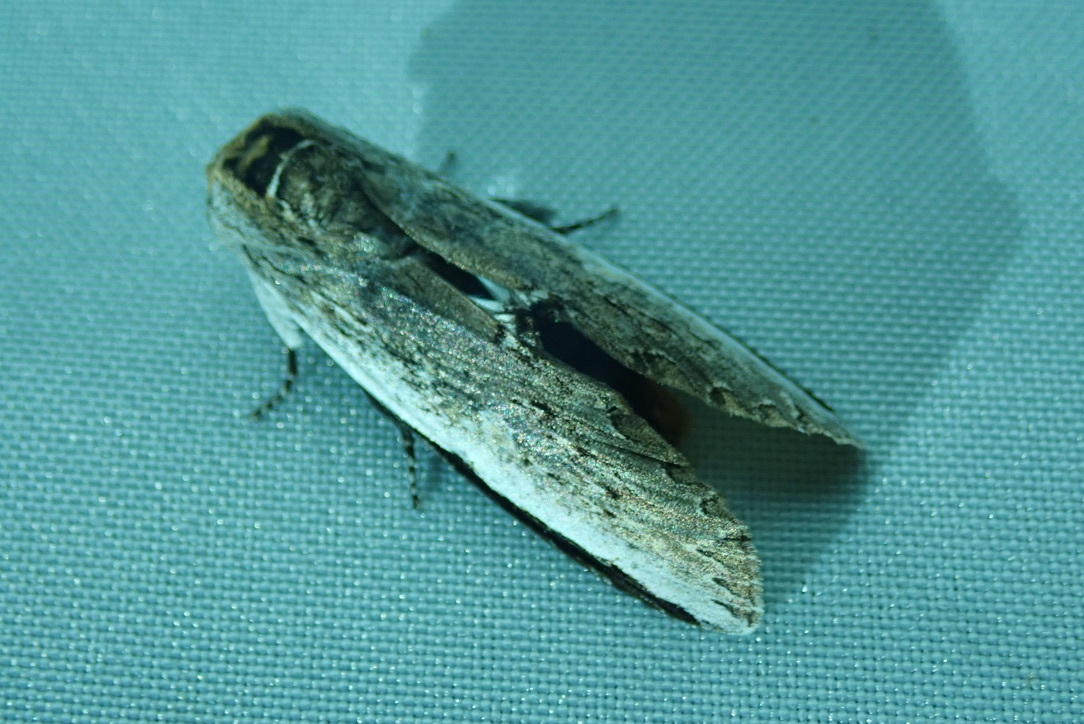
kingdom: Animalia
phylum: Arthropoda
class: Insecta
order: Lepidoptera
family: Notodontidae
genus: Lirimiris
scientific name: Lirimiris auriflua
